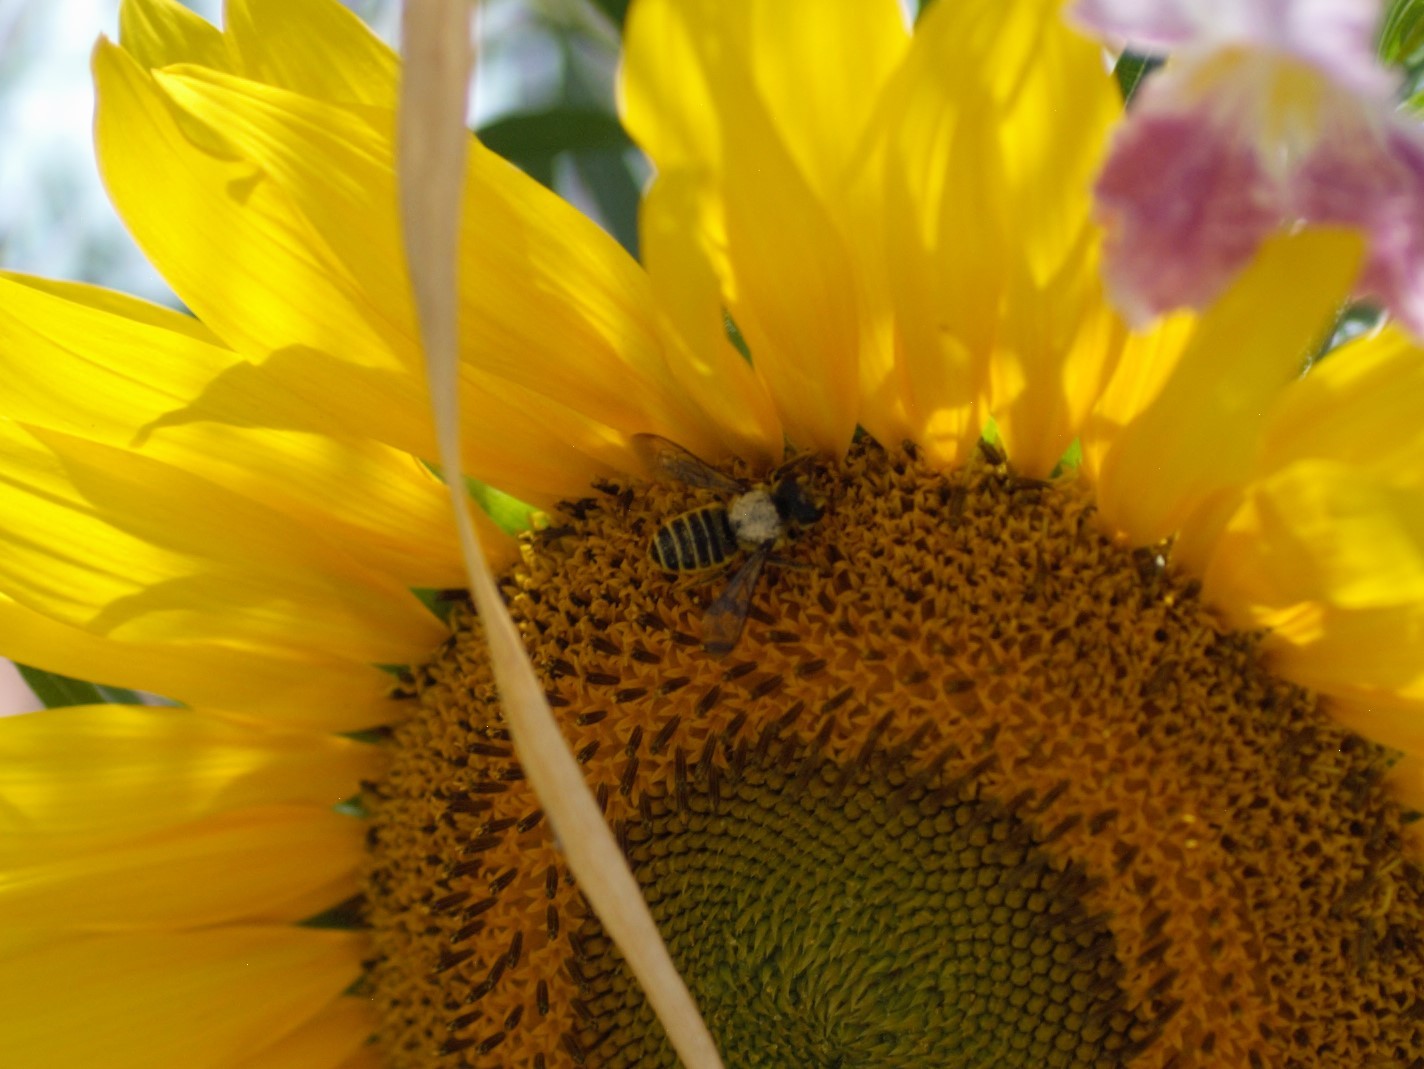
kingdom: Animalia
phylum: Arthropoda
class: Insecta
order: Hymenoptera
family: Megachilidae
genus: Megachile
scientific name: Megachile policaris
